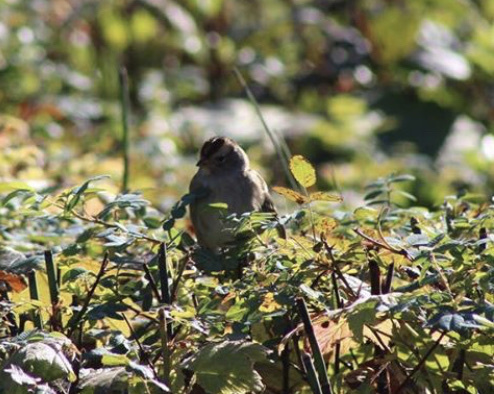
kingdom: Animalia
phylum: Chordata
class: Aves
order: Passeriformes
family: Passerellidae
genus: Zonotrichia
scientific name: Zonotrichia leucophrys
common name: White-crowned sparrow
